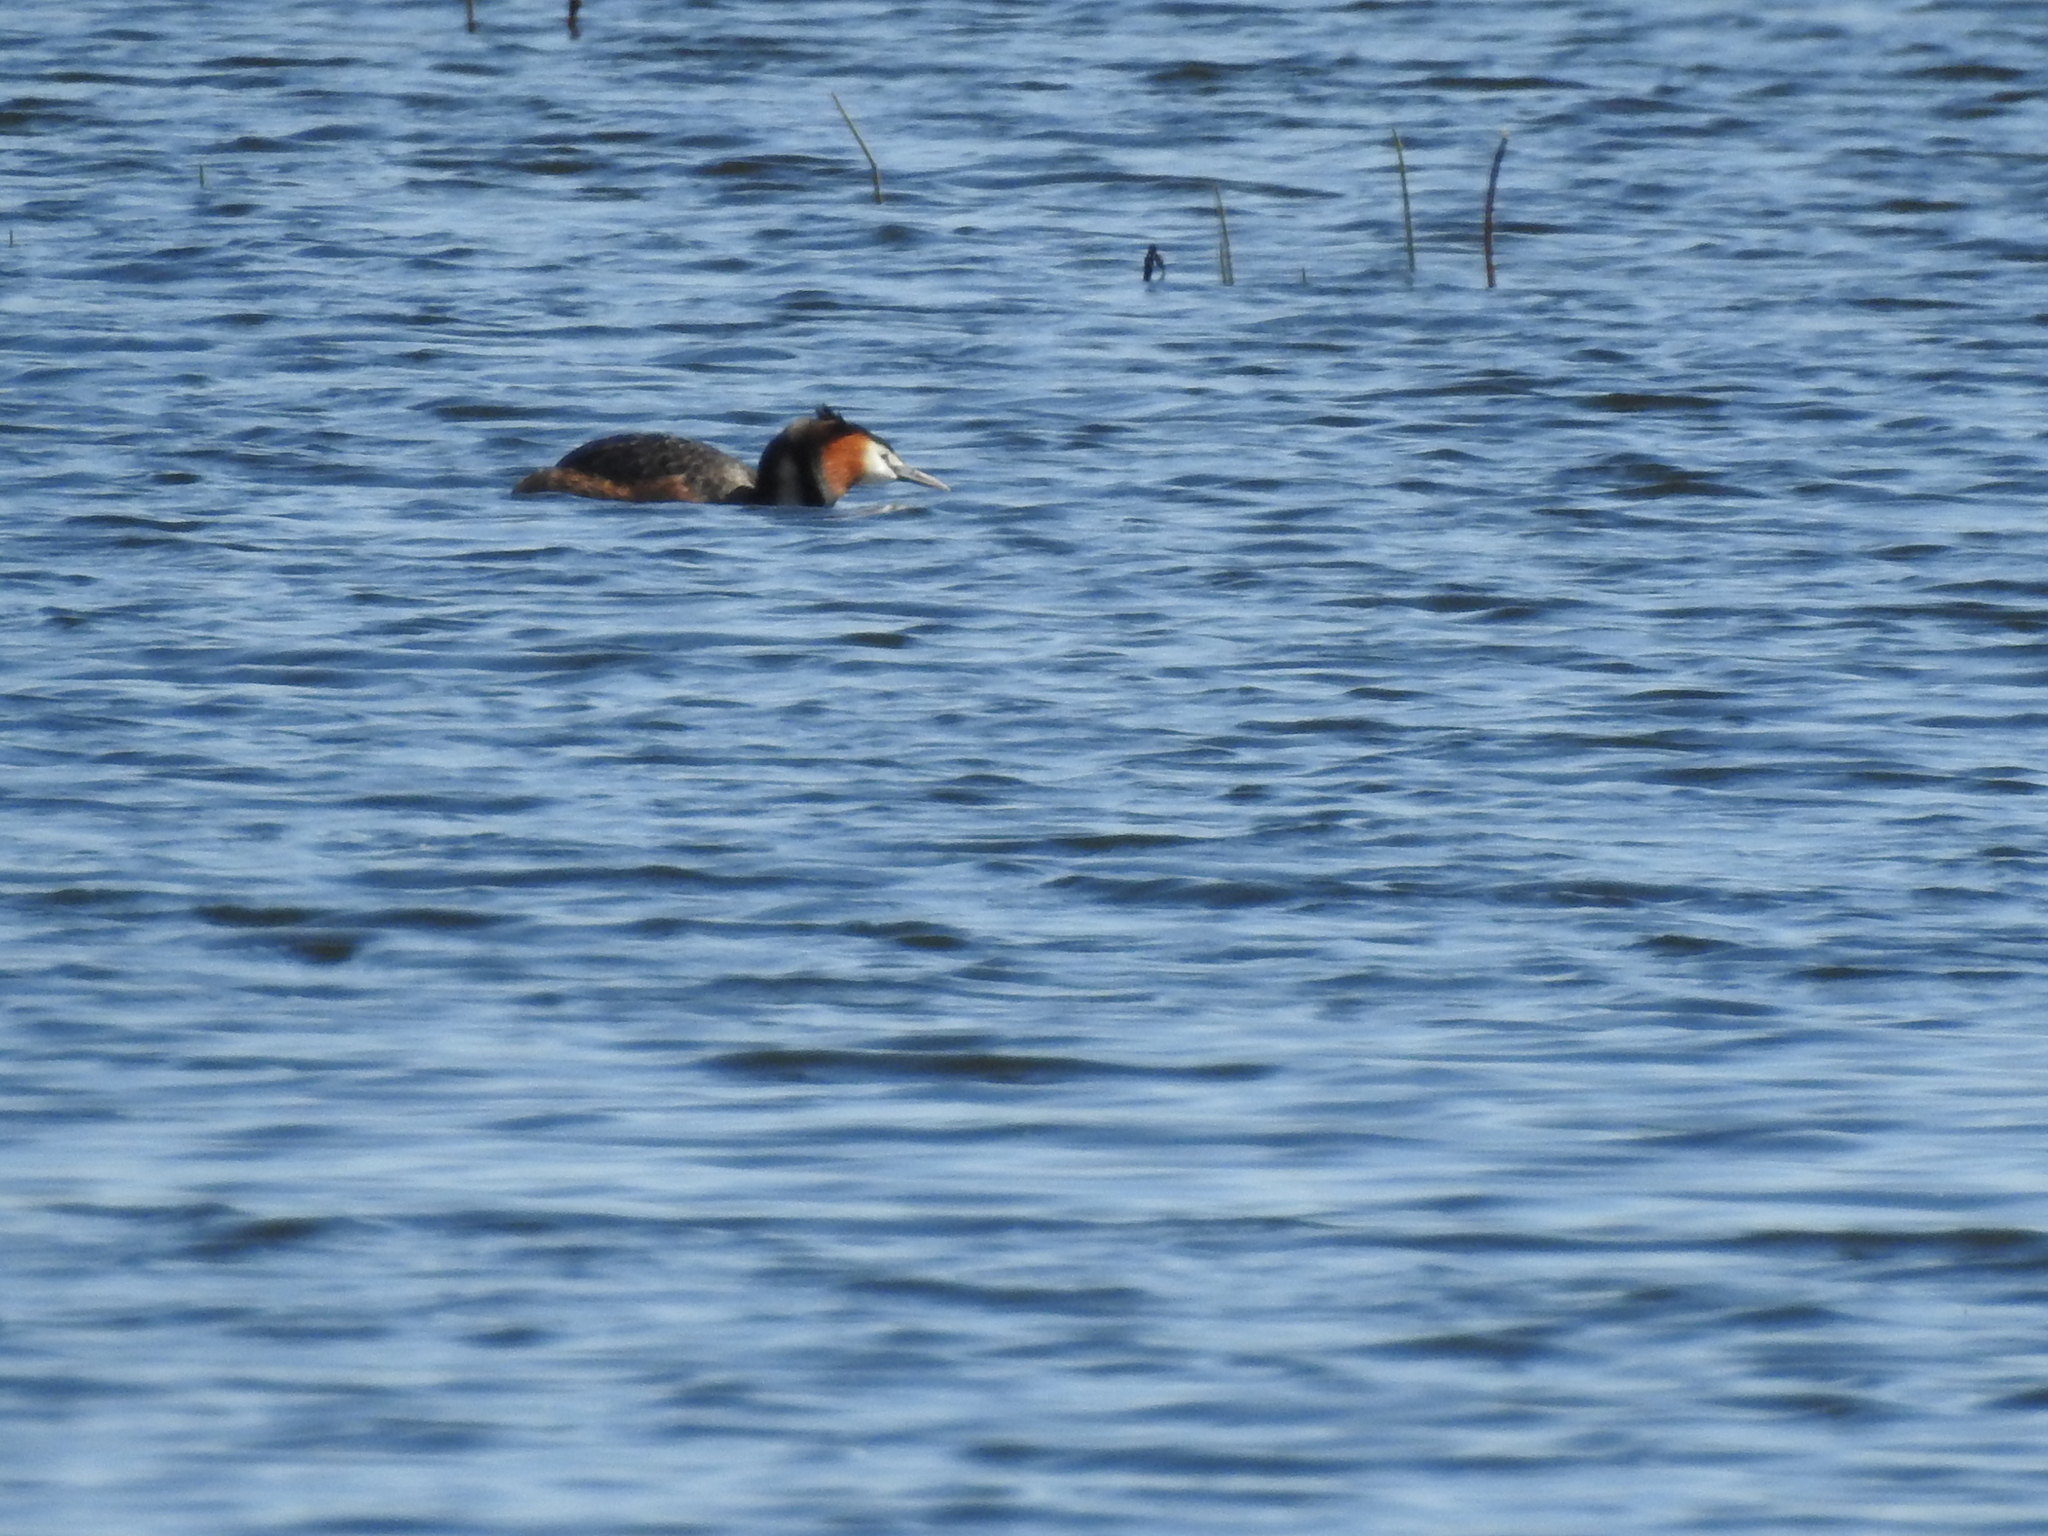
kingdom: Animalia
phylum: Chordata
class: Aves
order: Podicipediformes
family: Podicipedidae
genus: Podiceps
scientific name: Podiceps cristatus
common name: Great crested grebe
